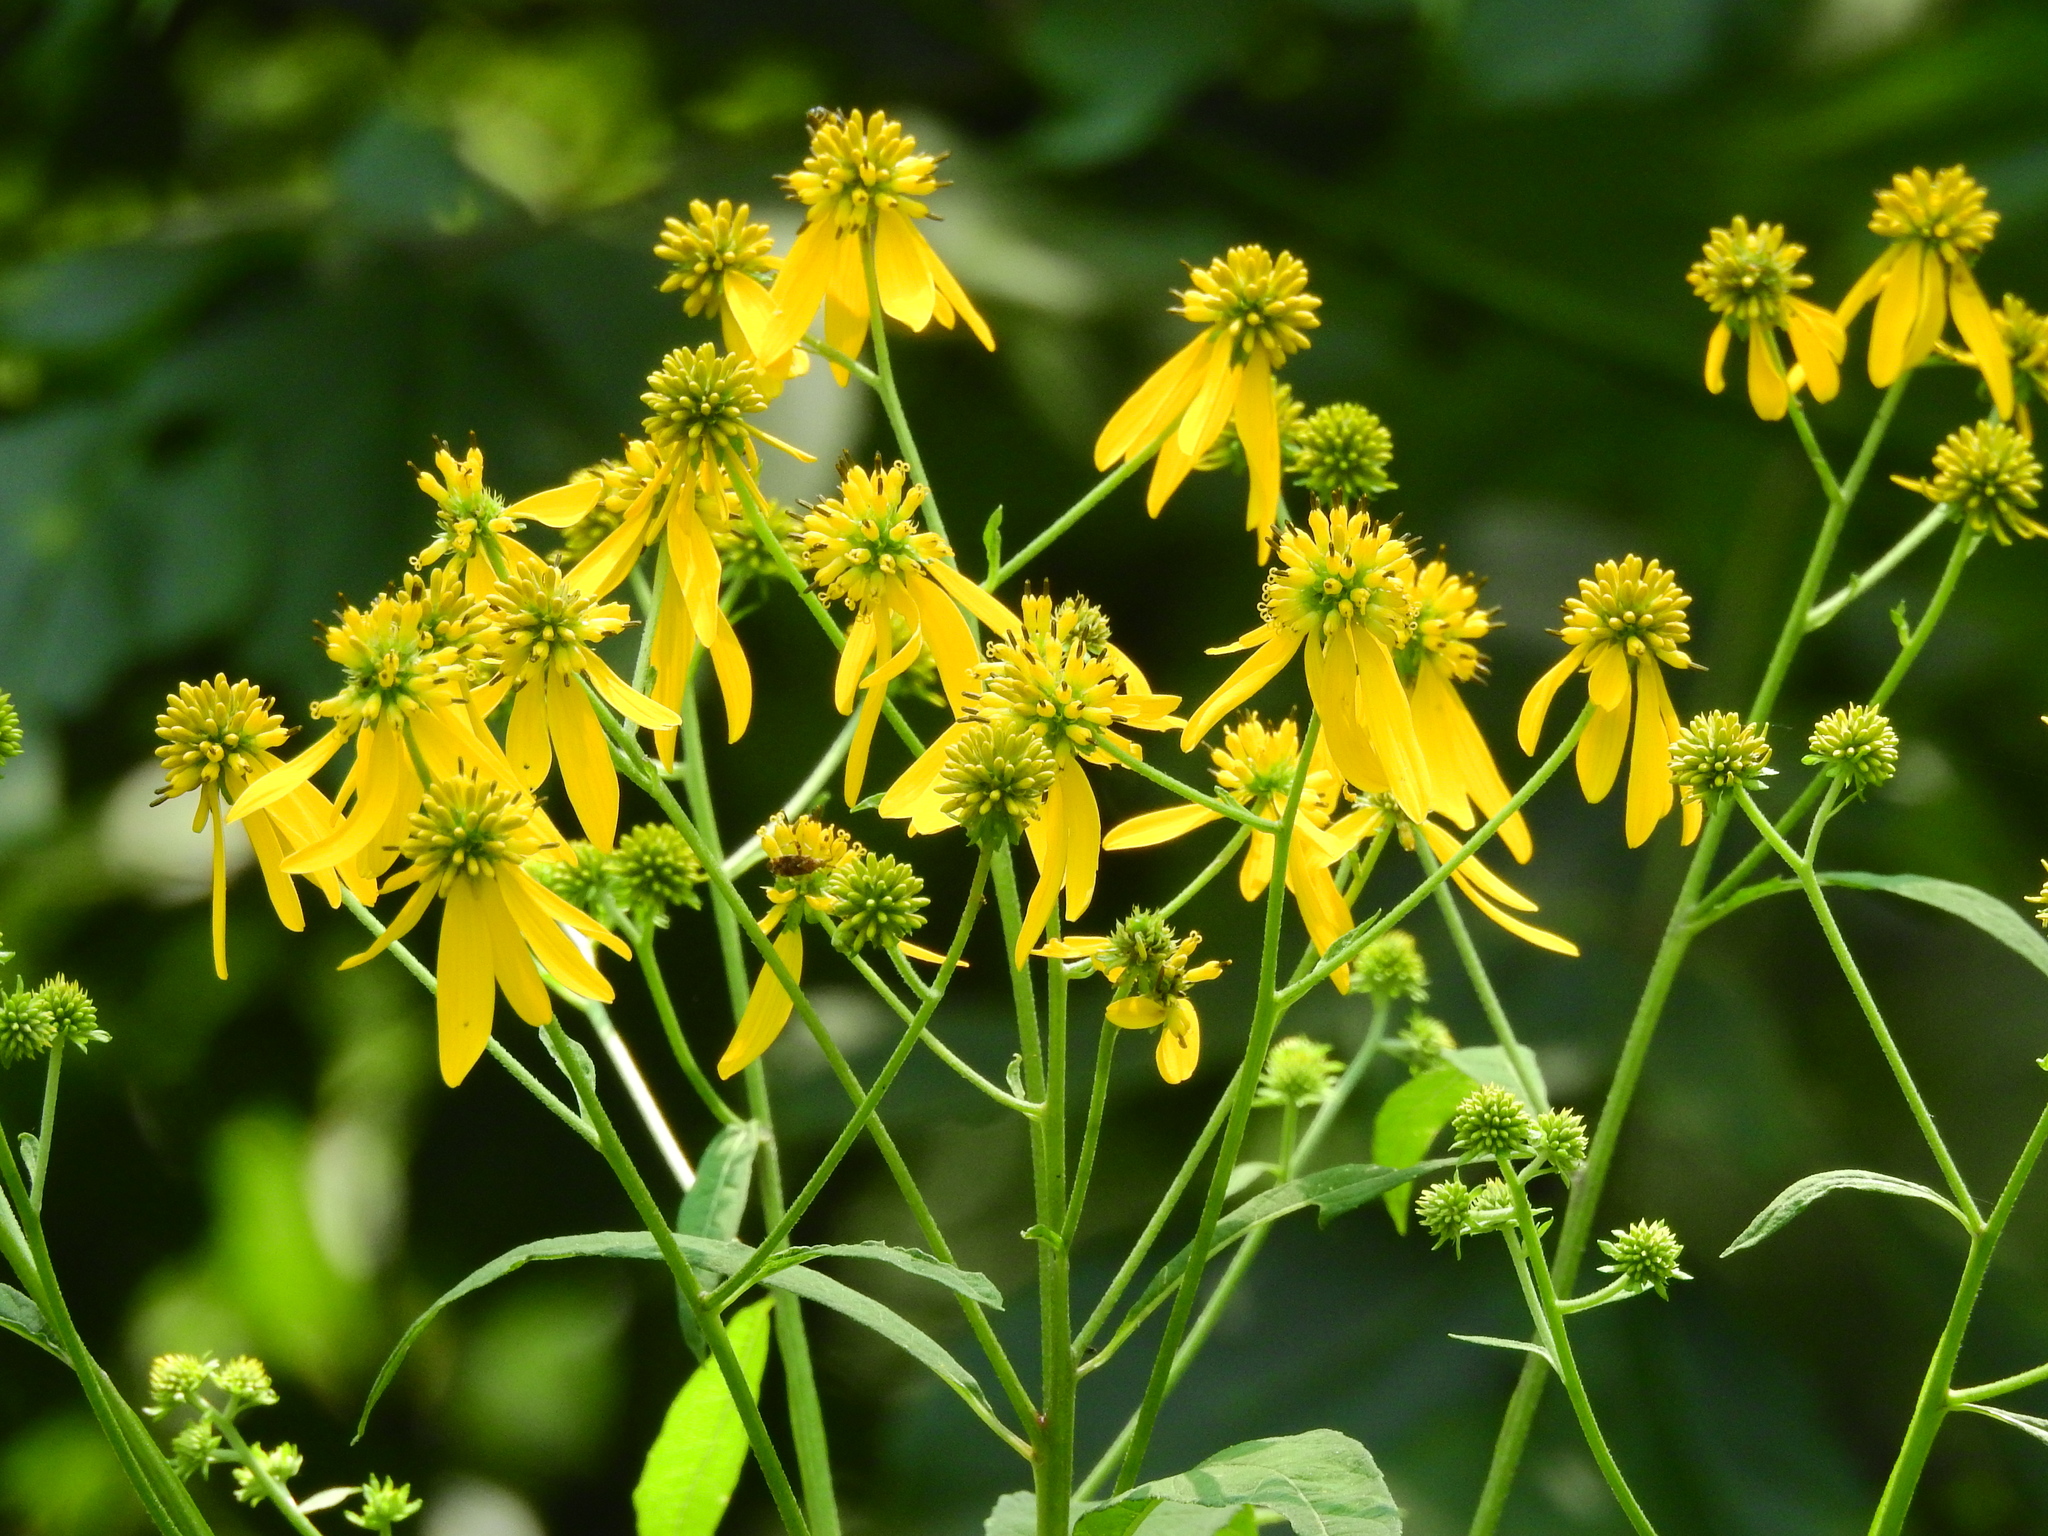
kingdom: Plantae
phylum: Tracheophyta
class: Magnoliopsida
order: Asterales
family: Asteraceae
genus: Verbesina
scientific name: Verbesina alternifolia
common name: Wingstem
